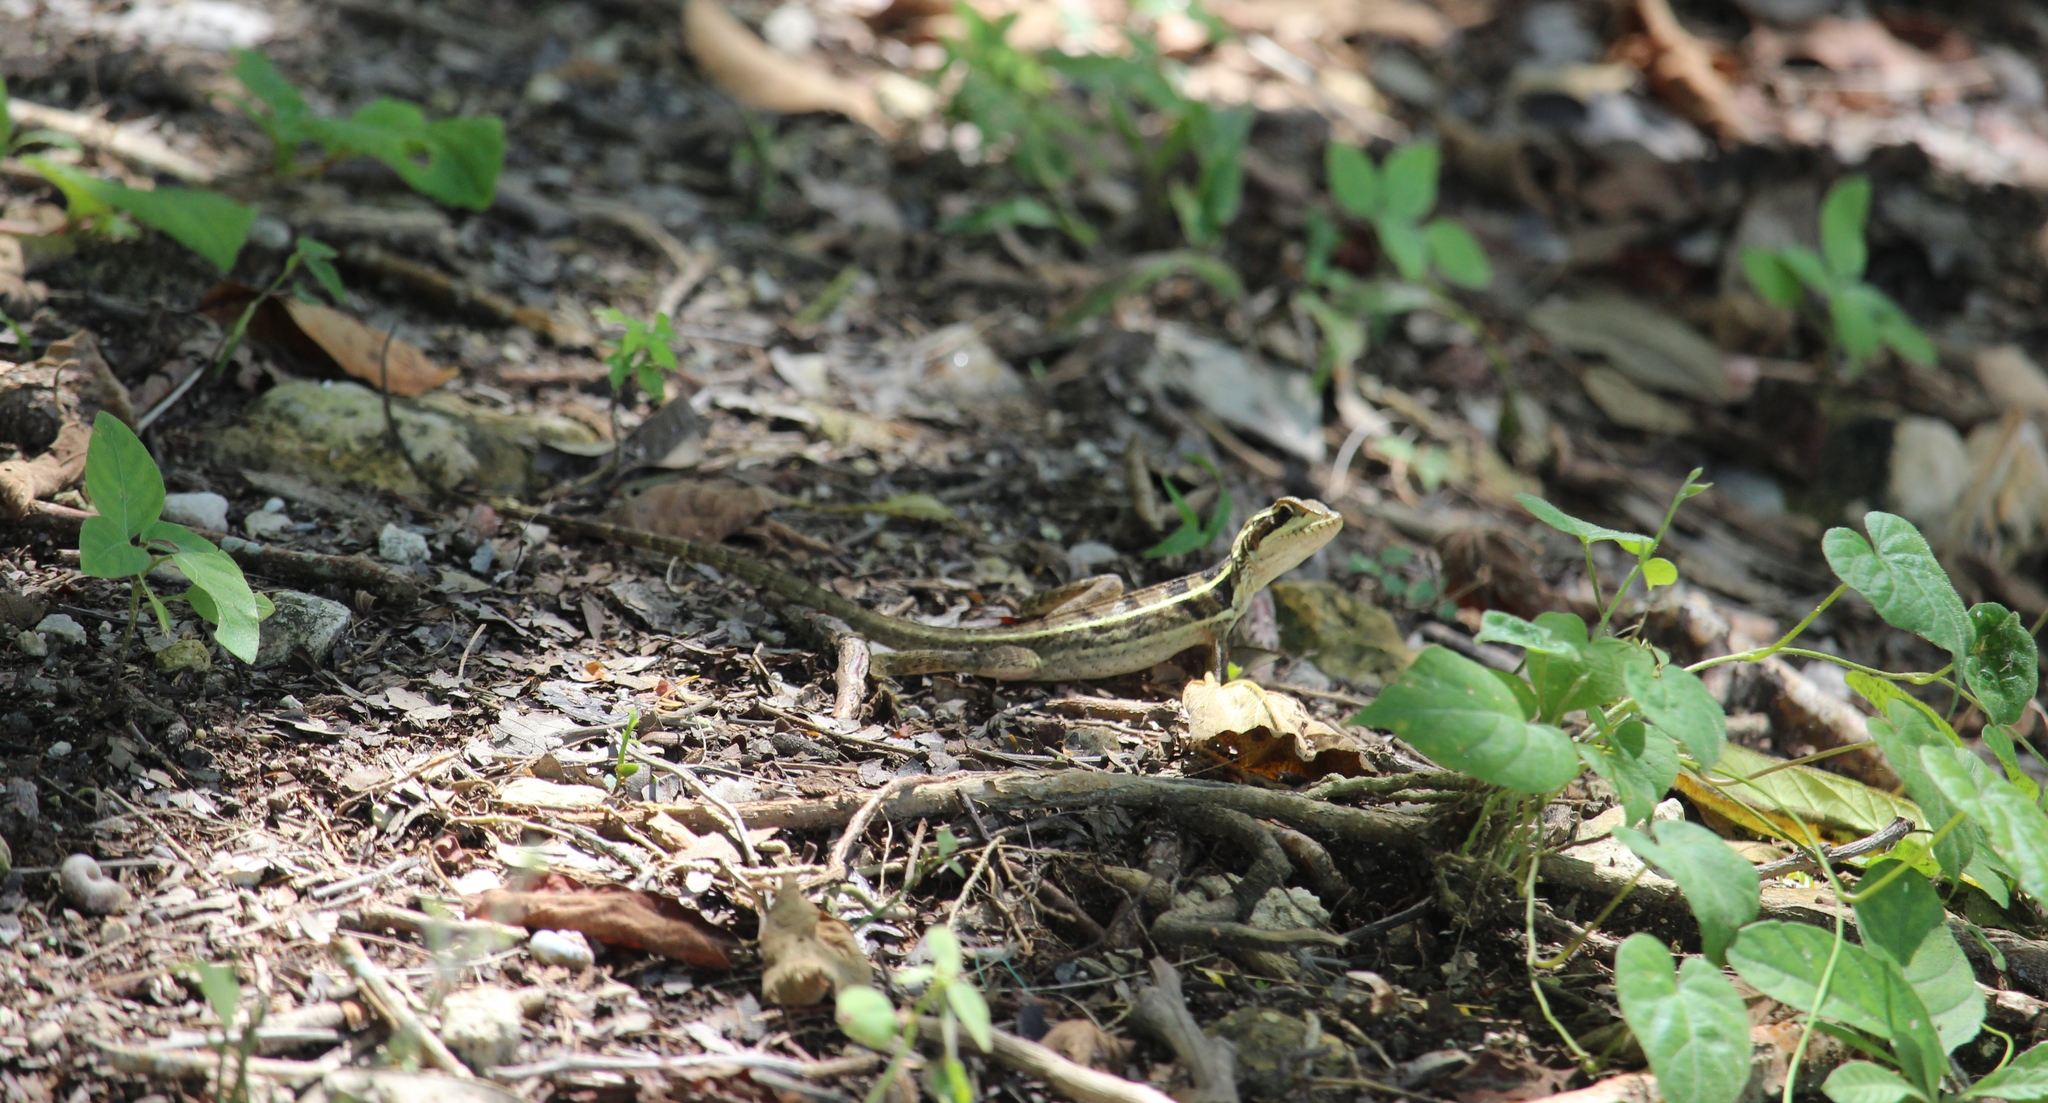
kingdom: Animalia
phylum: Chordata
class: Squamata
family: Corytophanidae
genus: Basiliscus
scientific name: Basiliscus vittatus
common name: Brown basilisk
